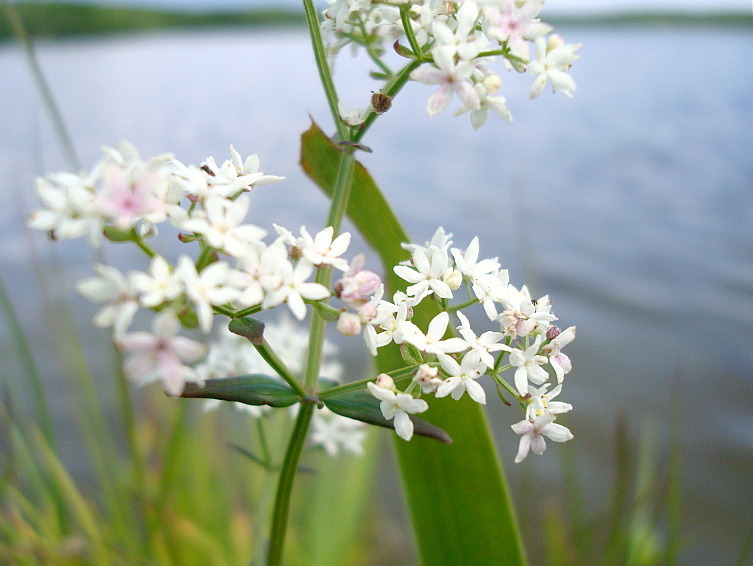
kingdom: Plantae
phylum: Tracheophyta
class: Magnoliopsida
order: Gentianales
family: Rubiaceae
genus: Galium
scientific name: Galium boreale
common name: Northern bedstraw
